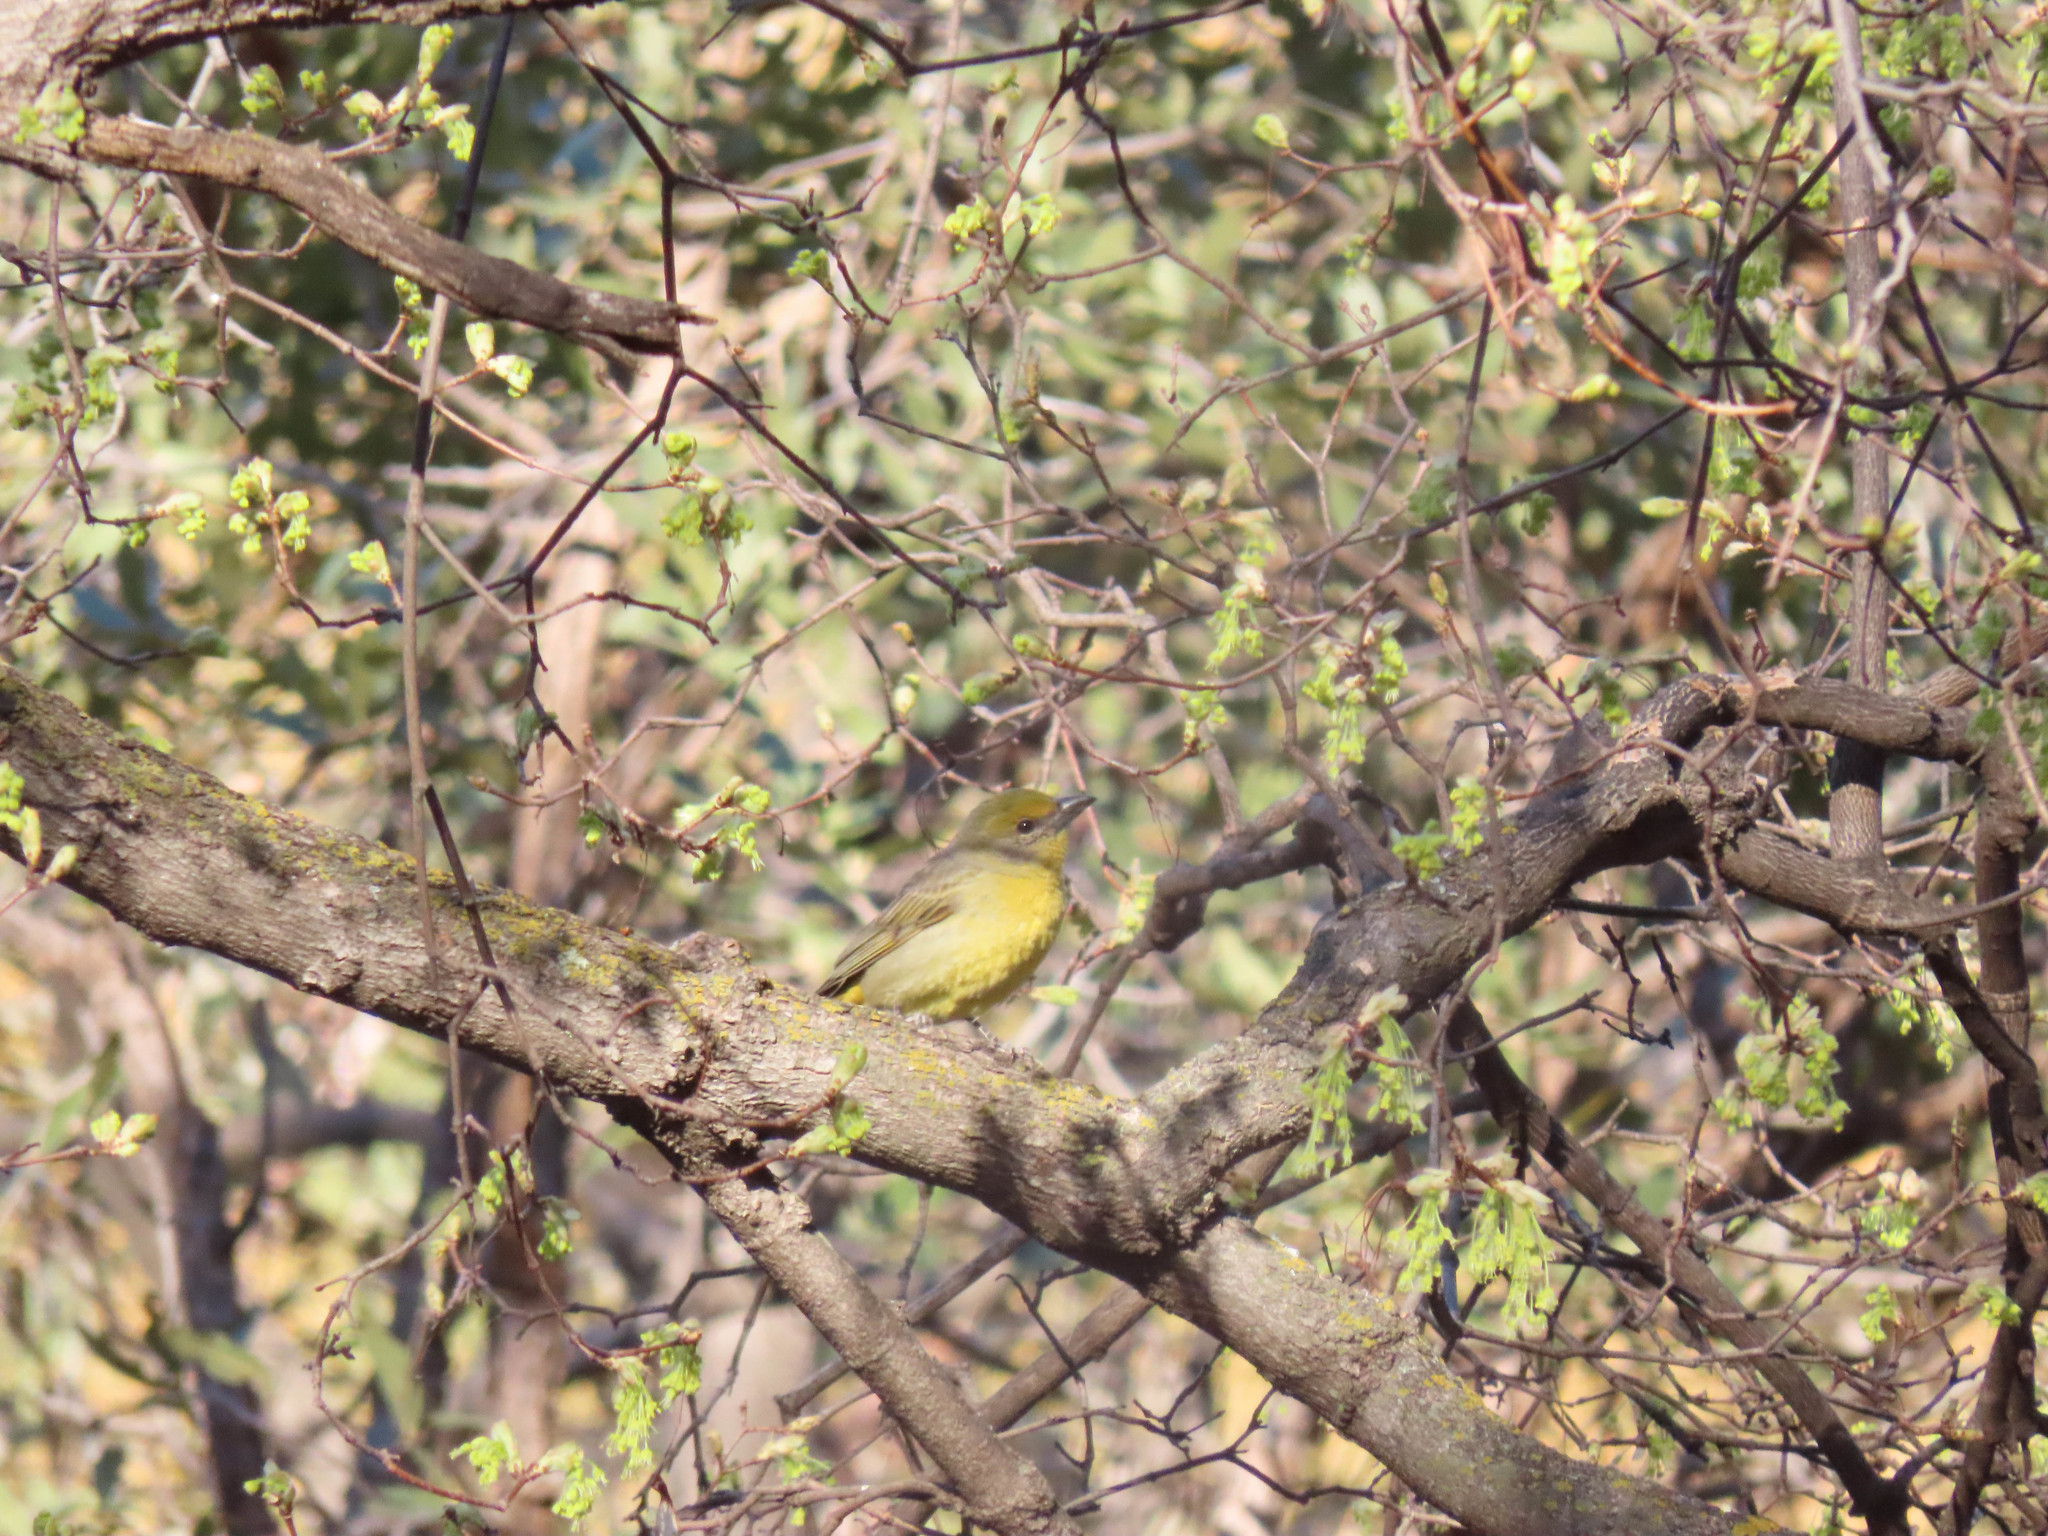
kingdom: Animalia
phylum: Chordata
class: Aves
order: Passeriformes
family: Cardinalidae
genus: Piranga
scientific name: Piranga flava
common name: Red tanager
